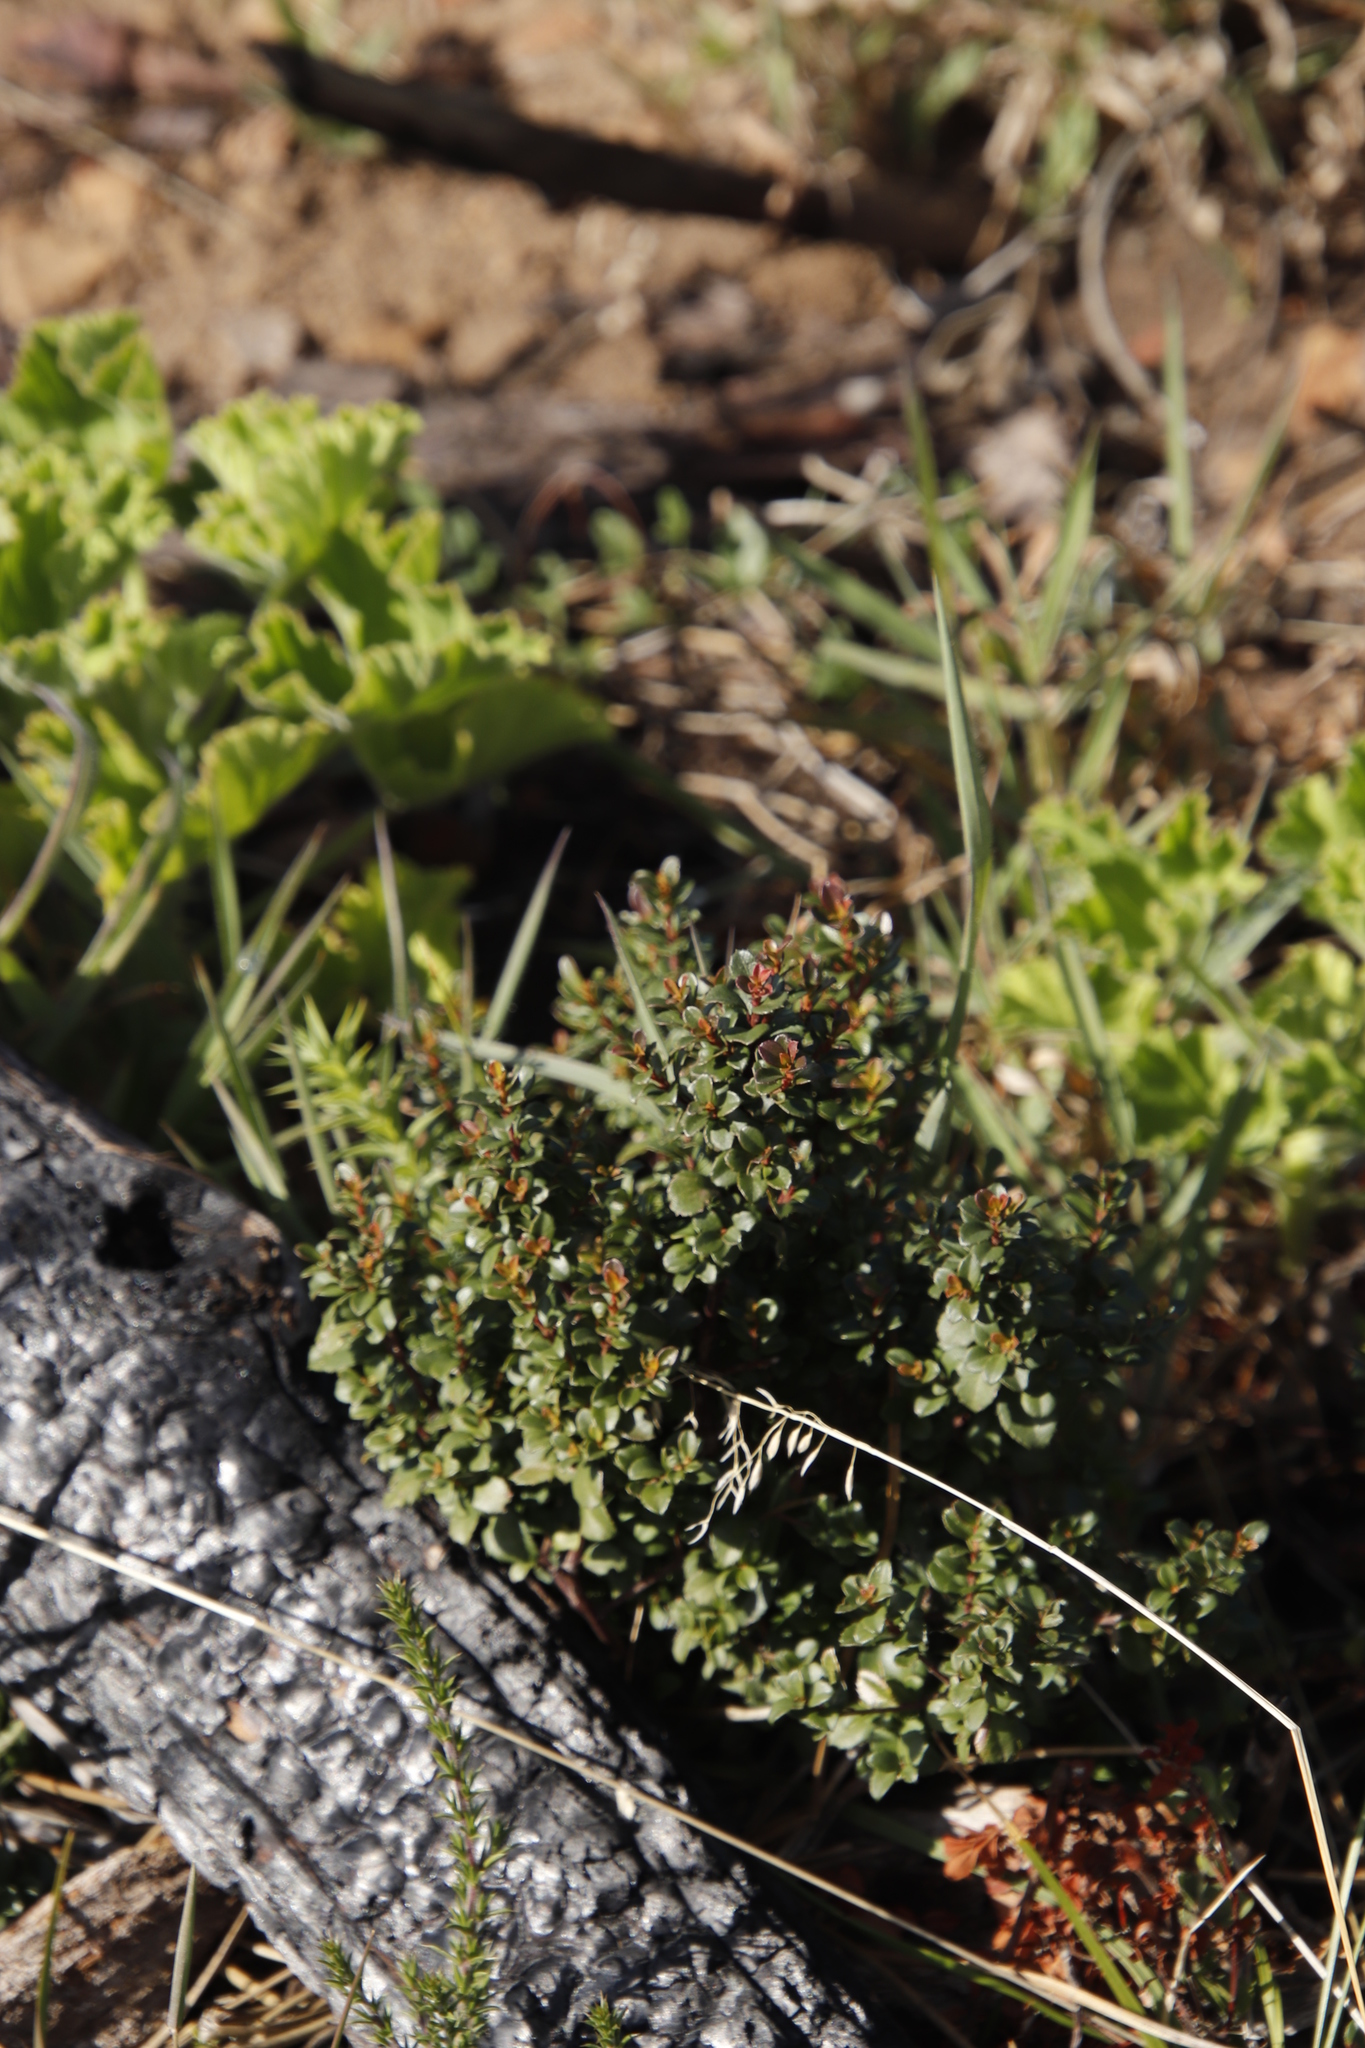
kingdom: Plantae
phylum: Tracheophyta
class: Magnoliopsida
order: Ericales
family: Primulaceae
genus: Myrsine
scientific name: Myrsine africana
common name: African-boxwood
